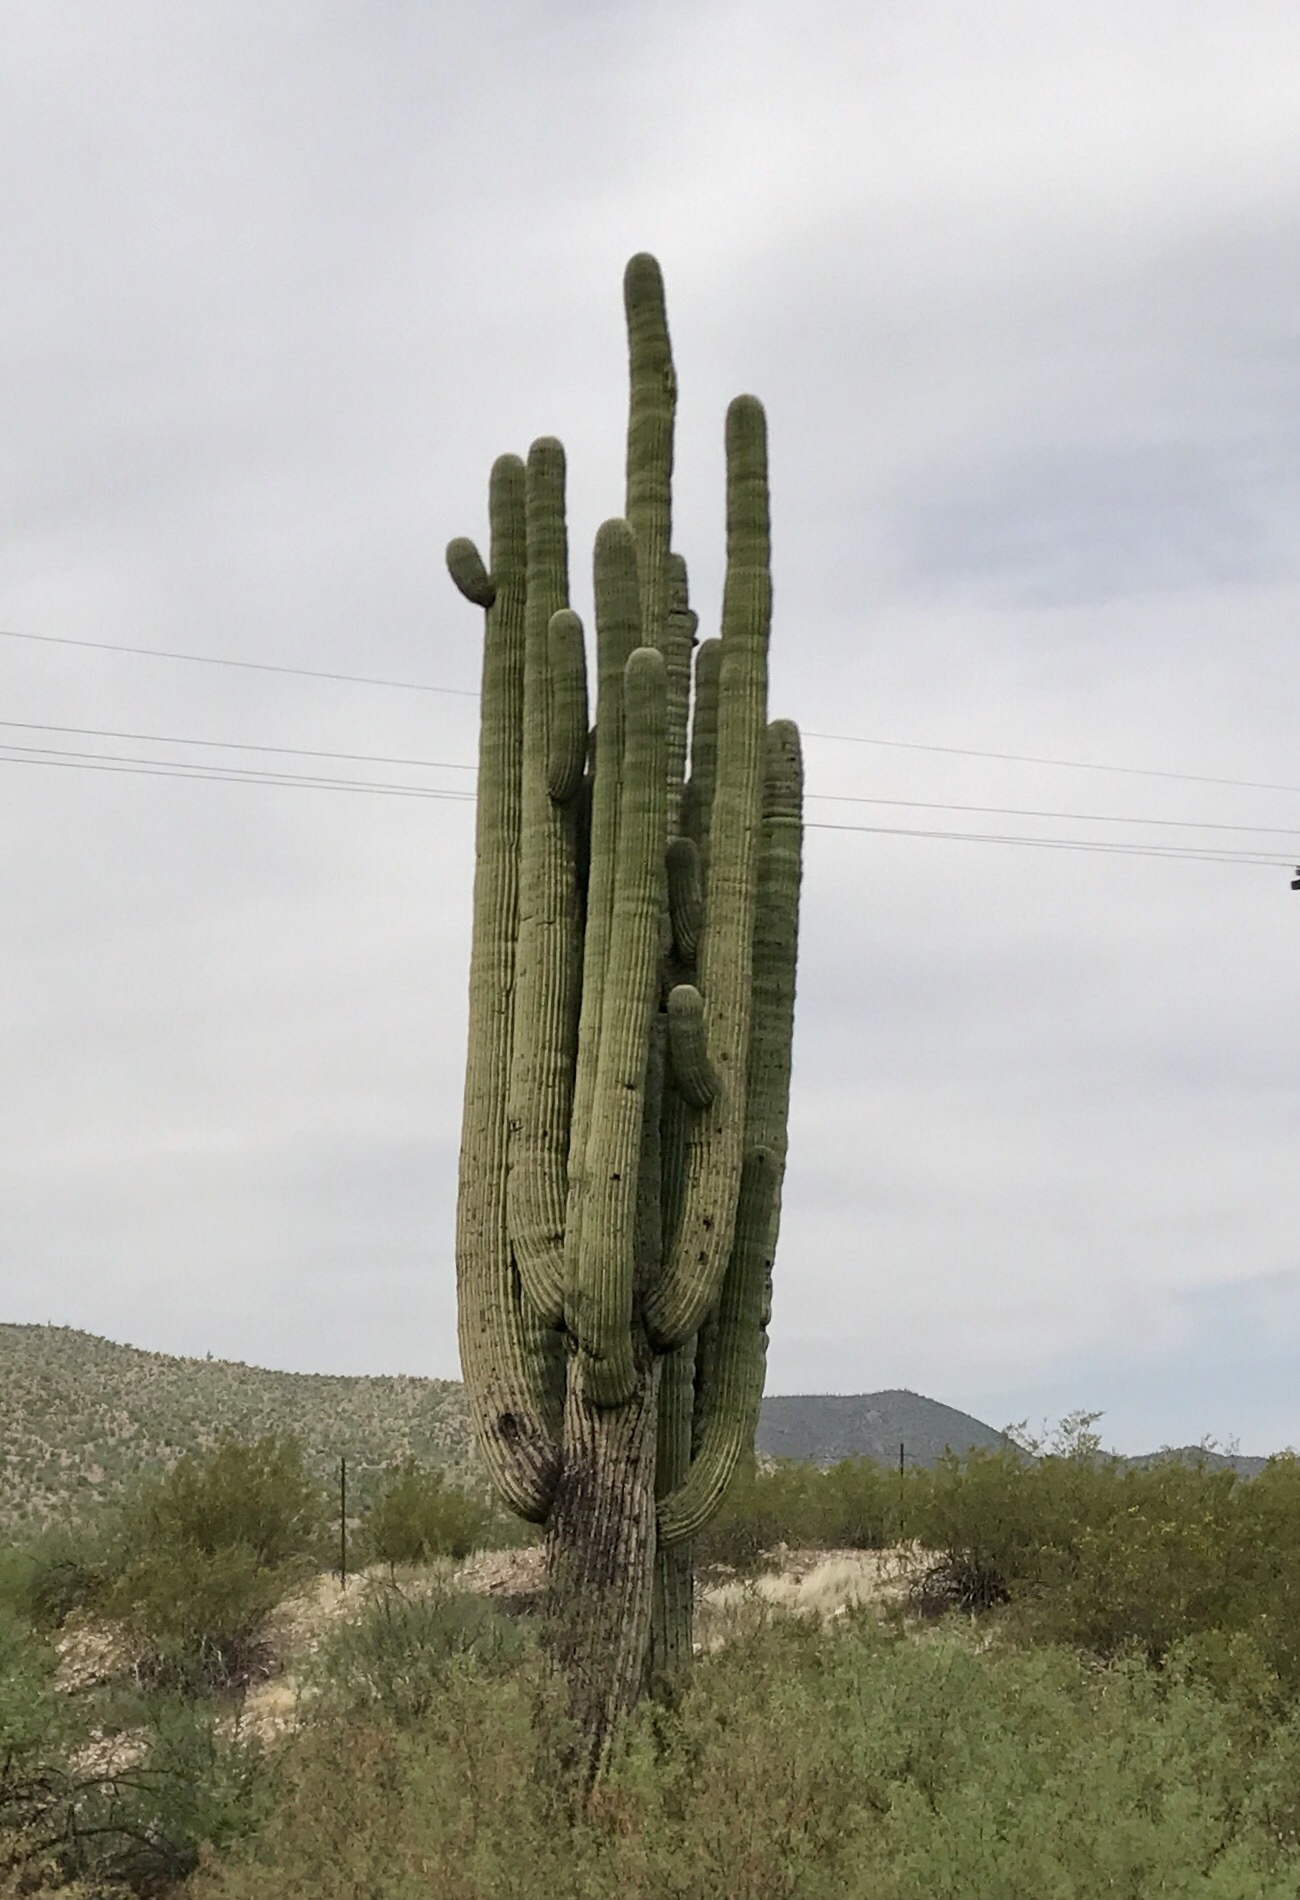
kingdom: Plantae
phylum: Tracheophyta
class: Magnoliopsida
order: Caryophyllales
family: Cactaceae
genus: Carnegiea
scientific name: Carnegiea gigantea
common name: Saguaro
